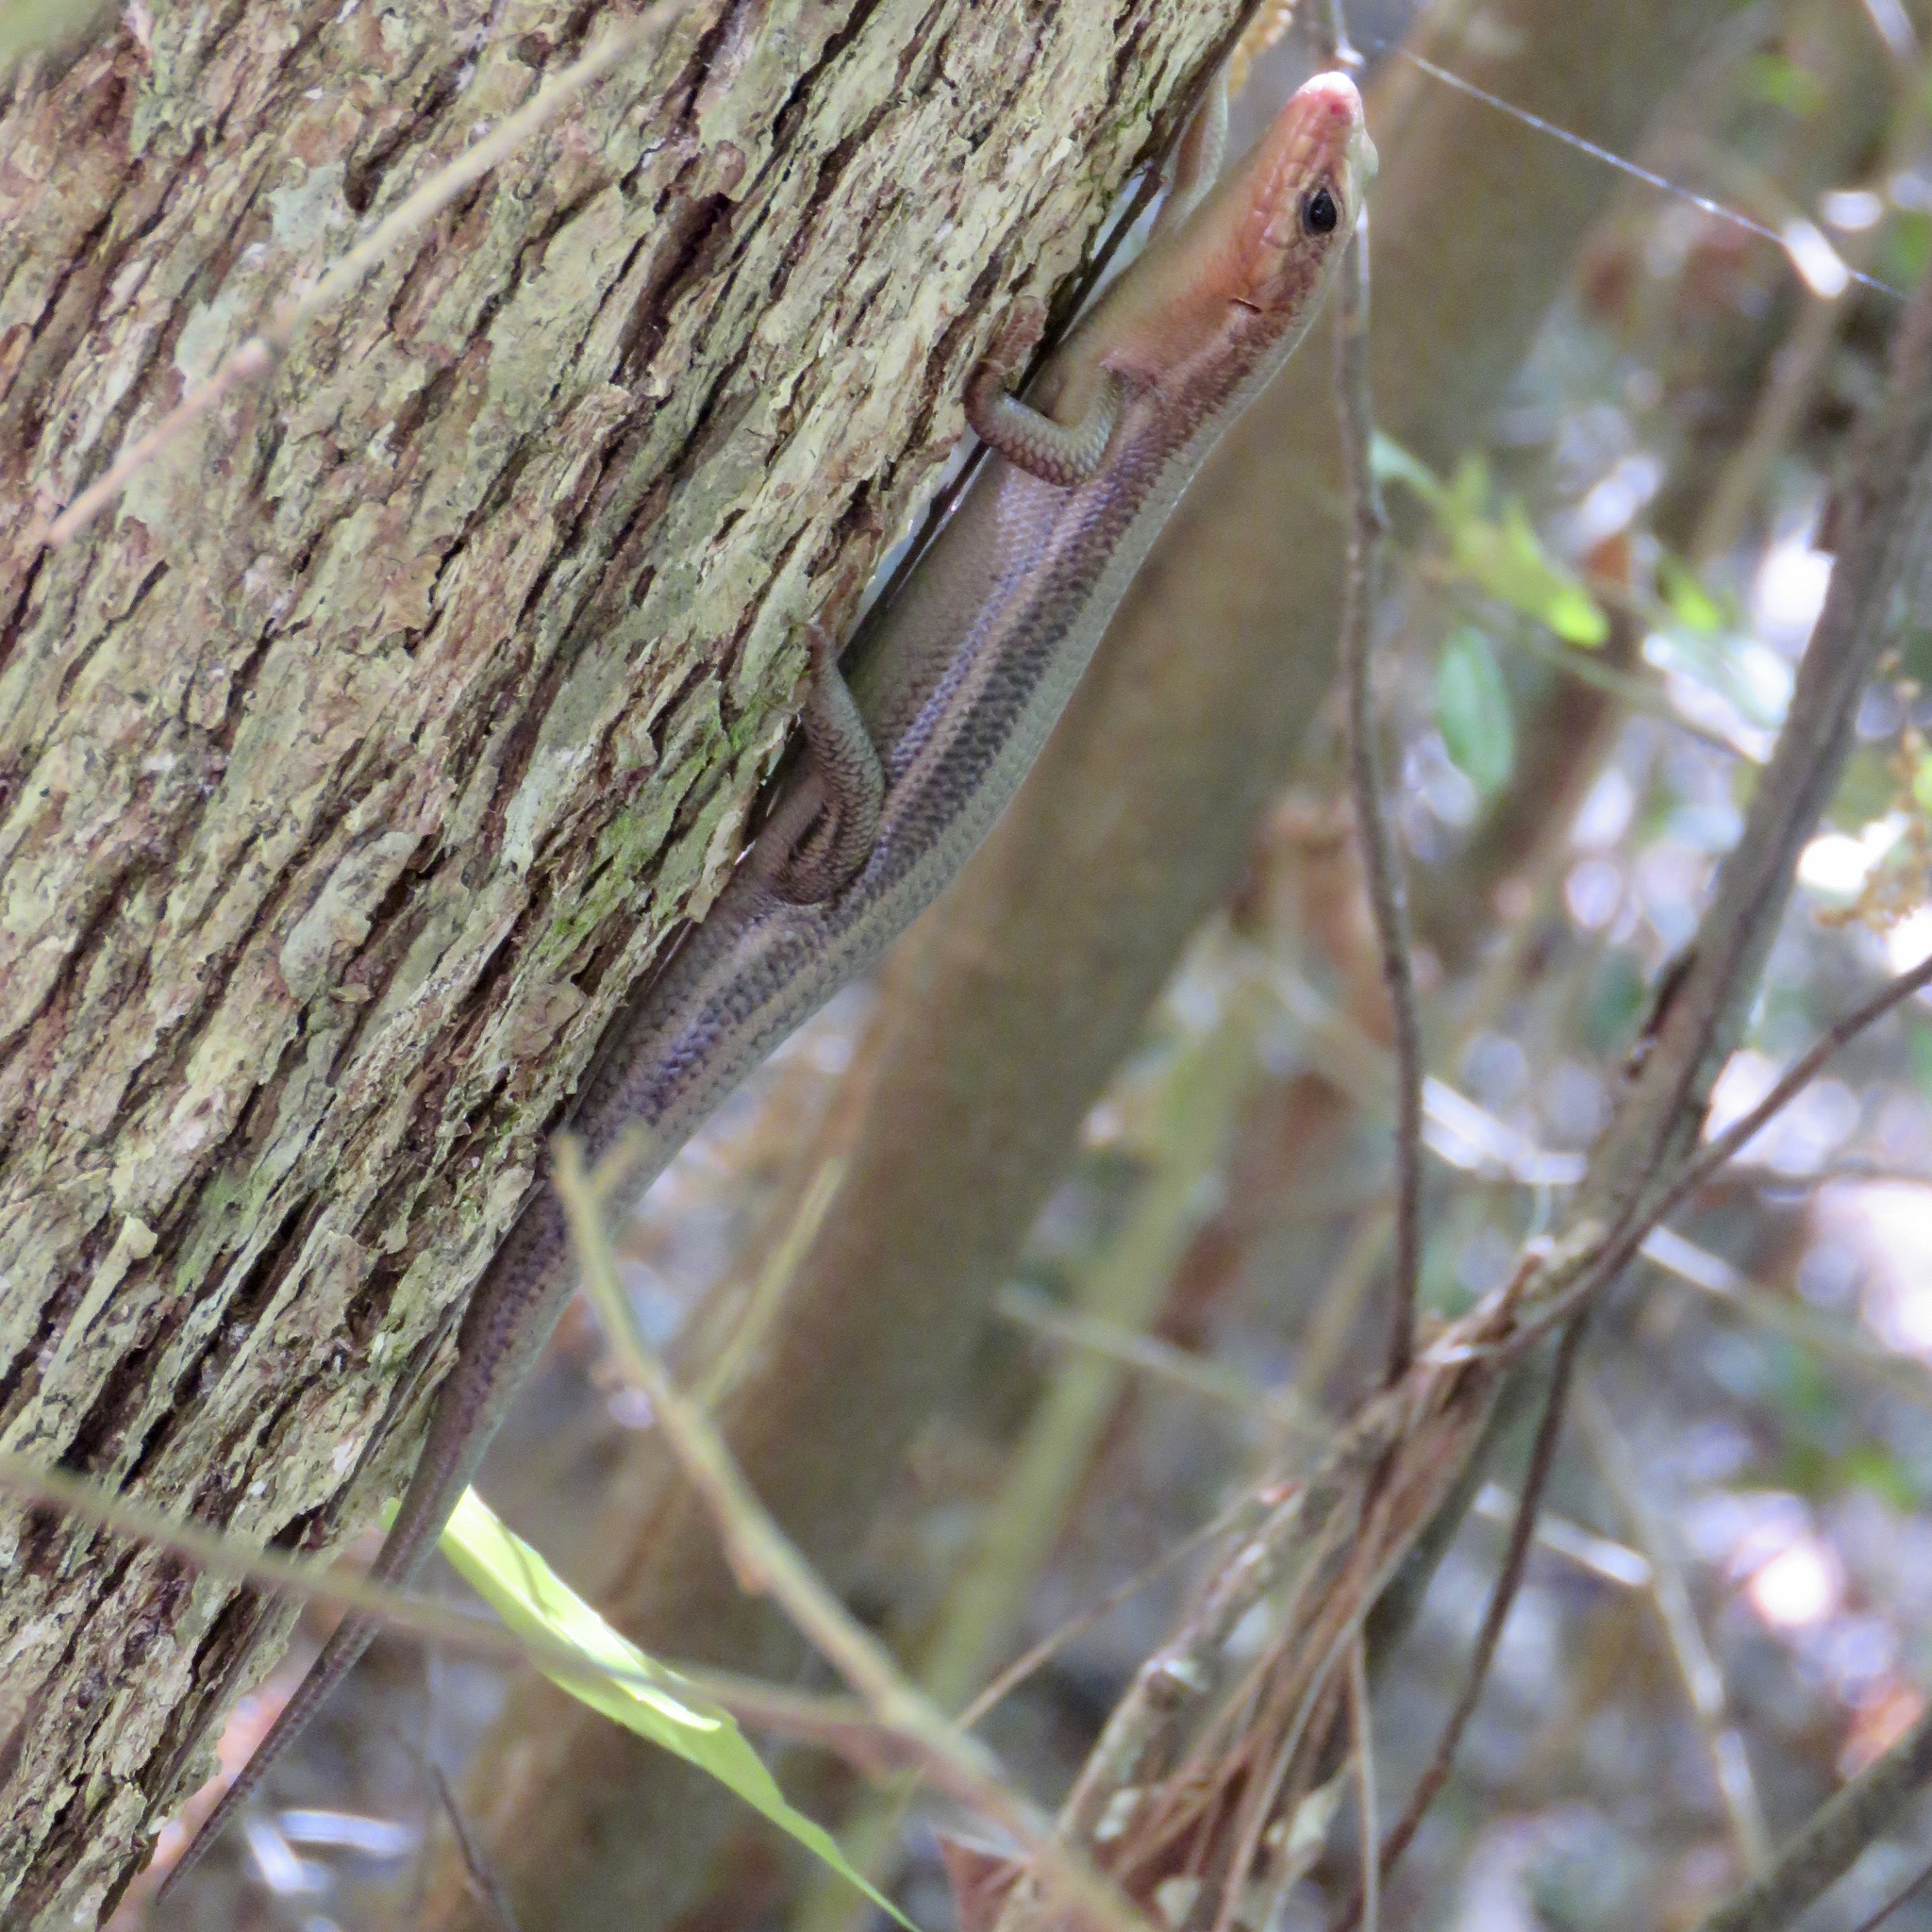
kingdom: Animalia
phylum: Chordata
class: Squamata
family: Scincidae
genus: Plestiodon
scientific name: Plestiodon fasciatus
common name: Five-lined skink
